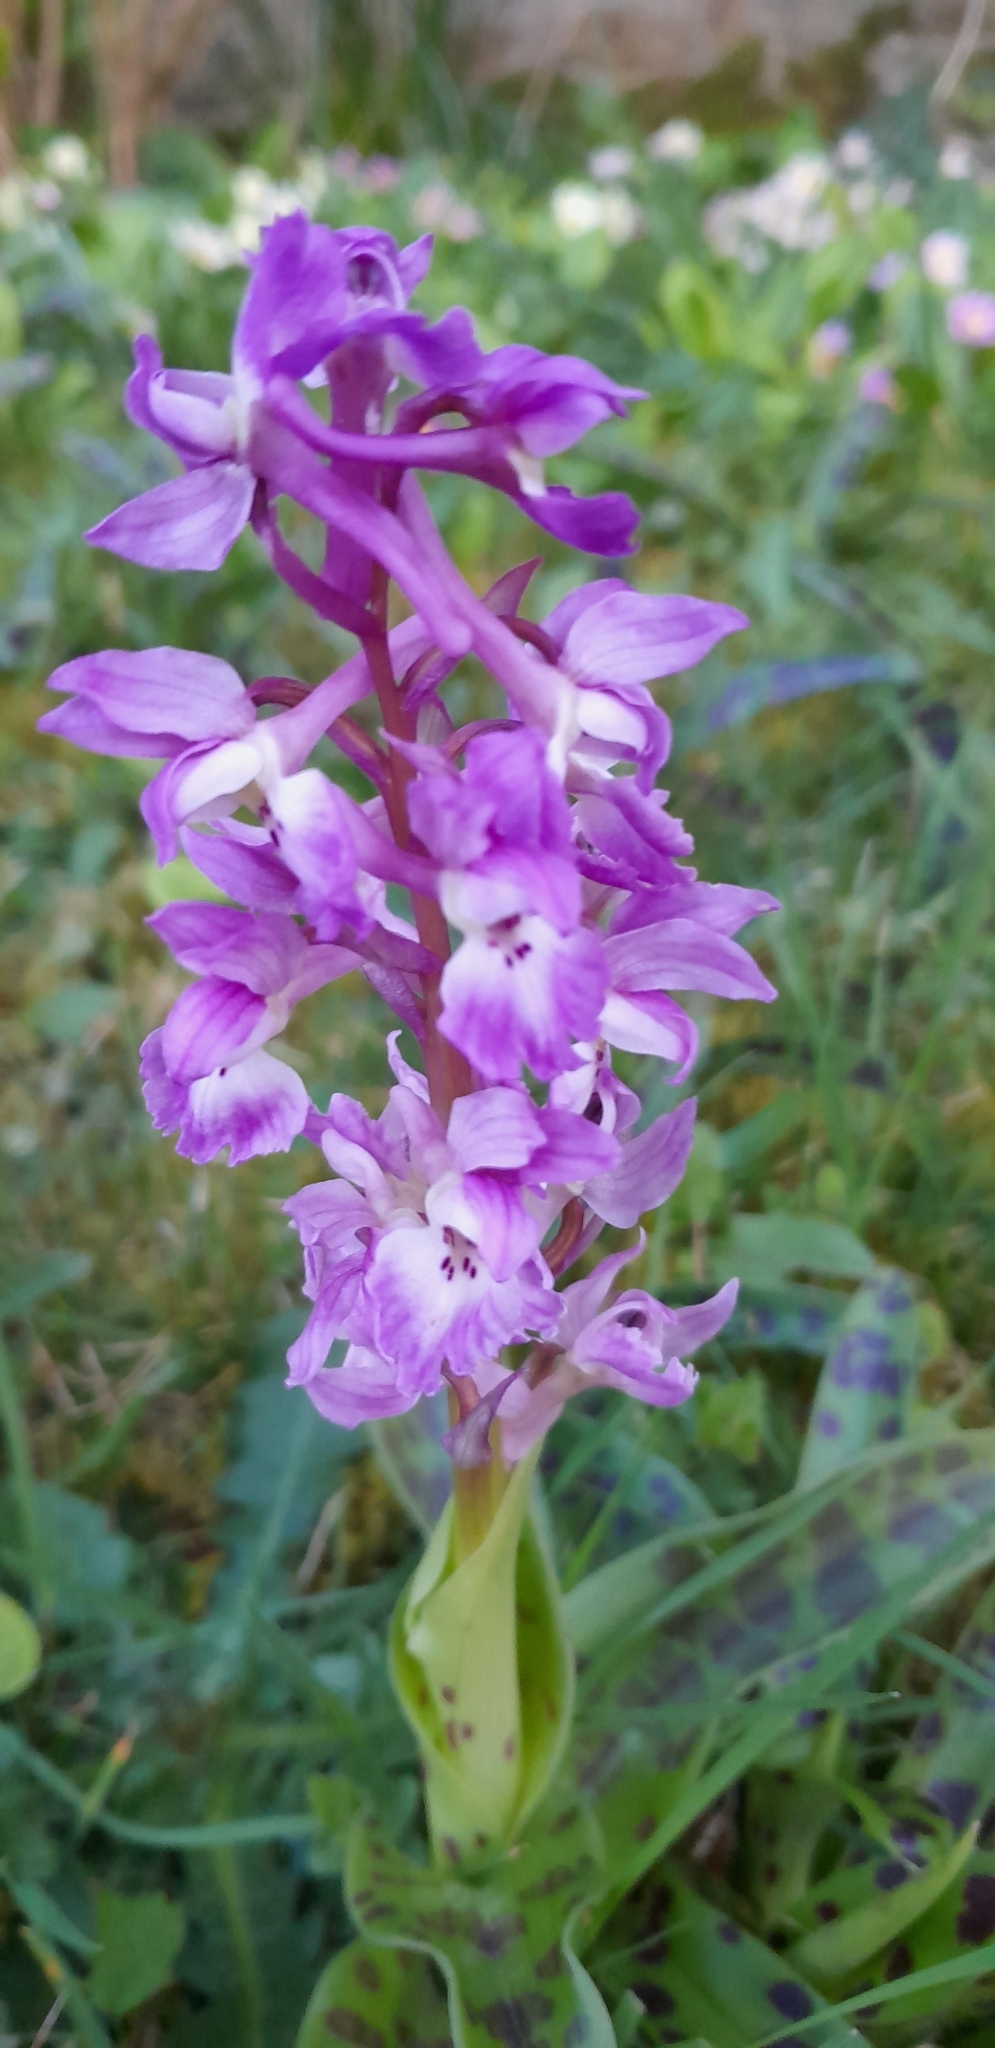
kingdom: Plantae
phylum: Tracheophyta
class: Liliopsida
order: Asparagales
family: Orchidaceae
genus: Orchis
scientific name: Orchis mascula
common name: Early-purple orchid
